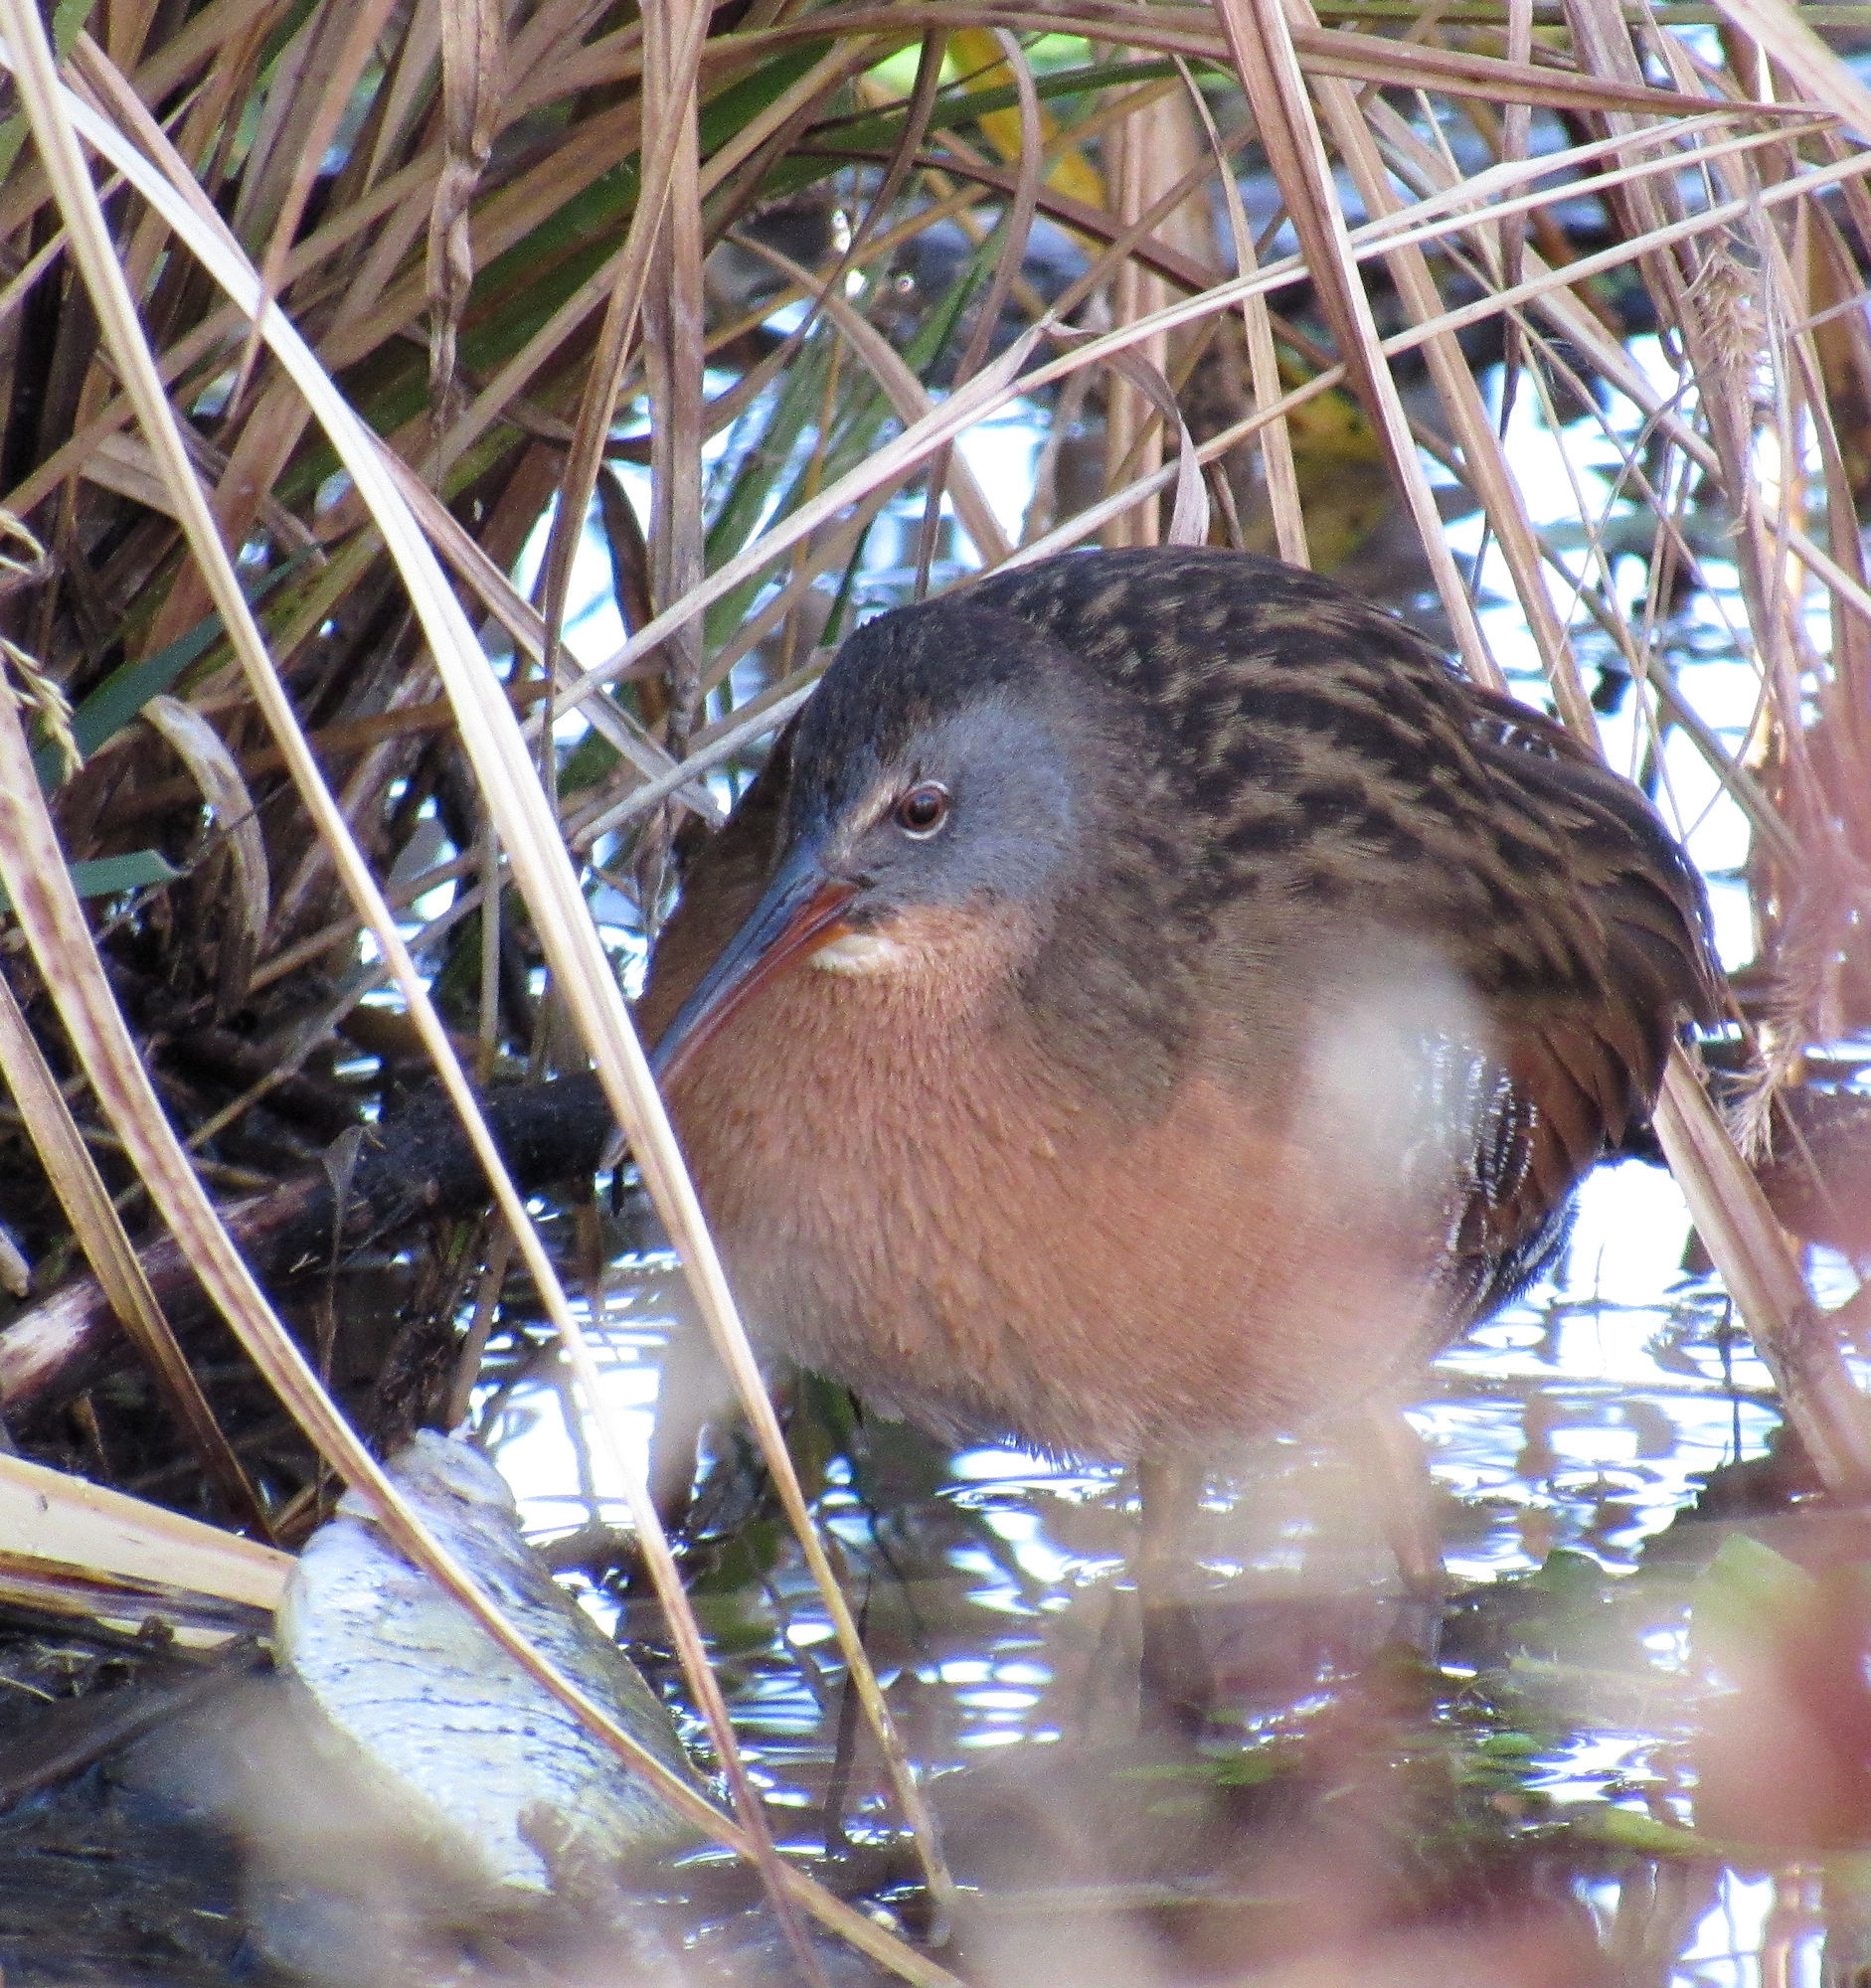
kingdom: Animalia
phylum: Chordata
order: Perciformes
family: Centrarchidae
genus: Pomoxis
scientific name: Pomoxis annularis
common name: White crappie
